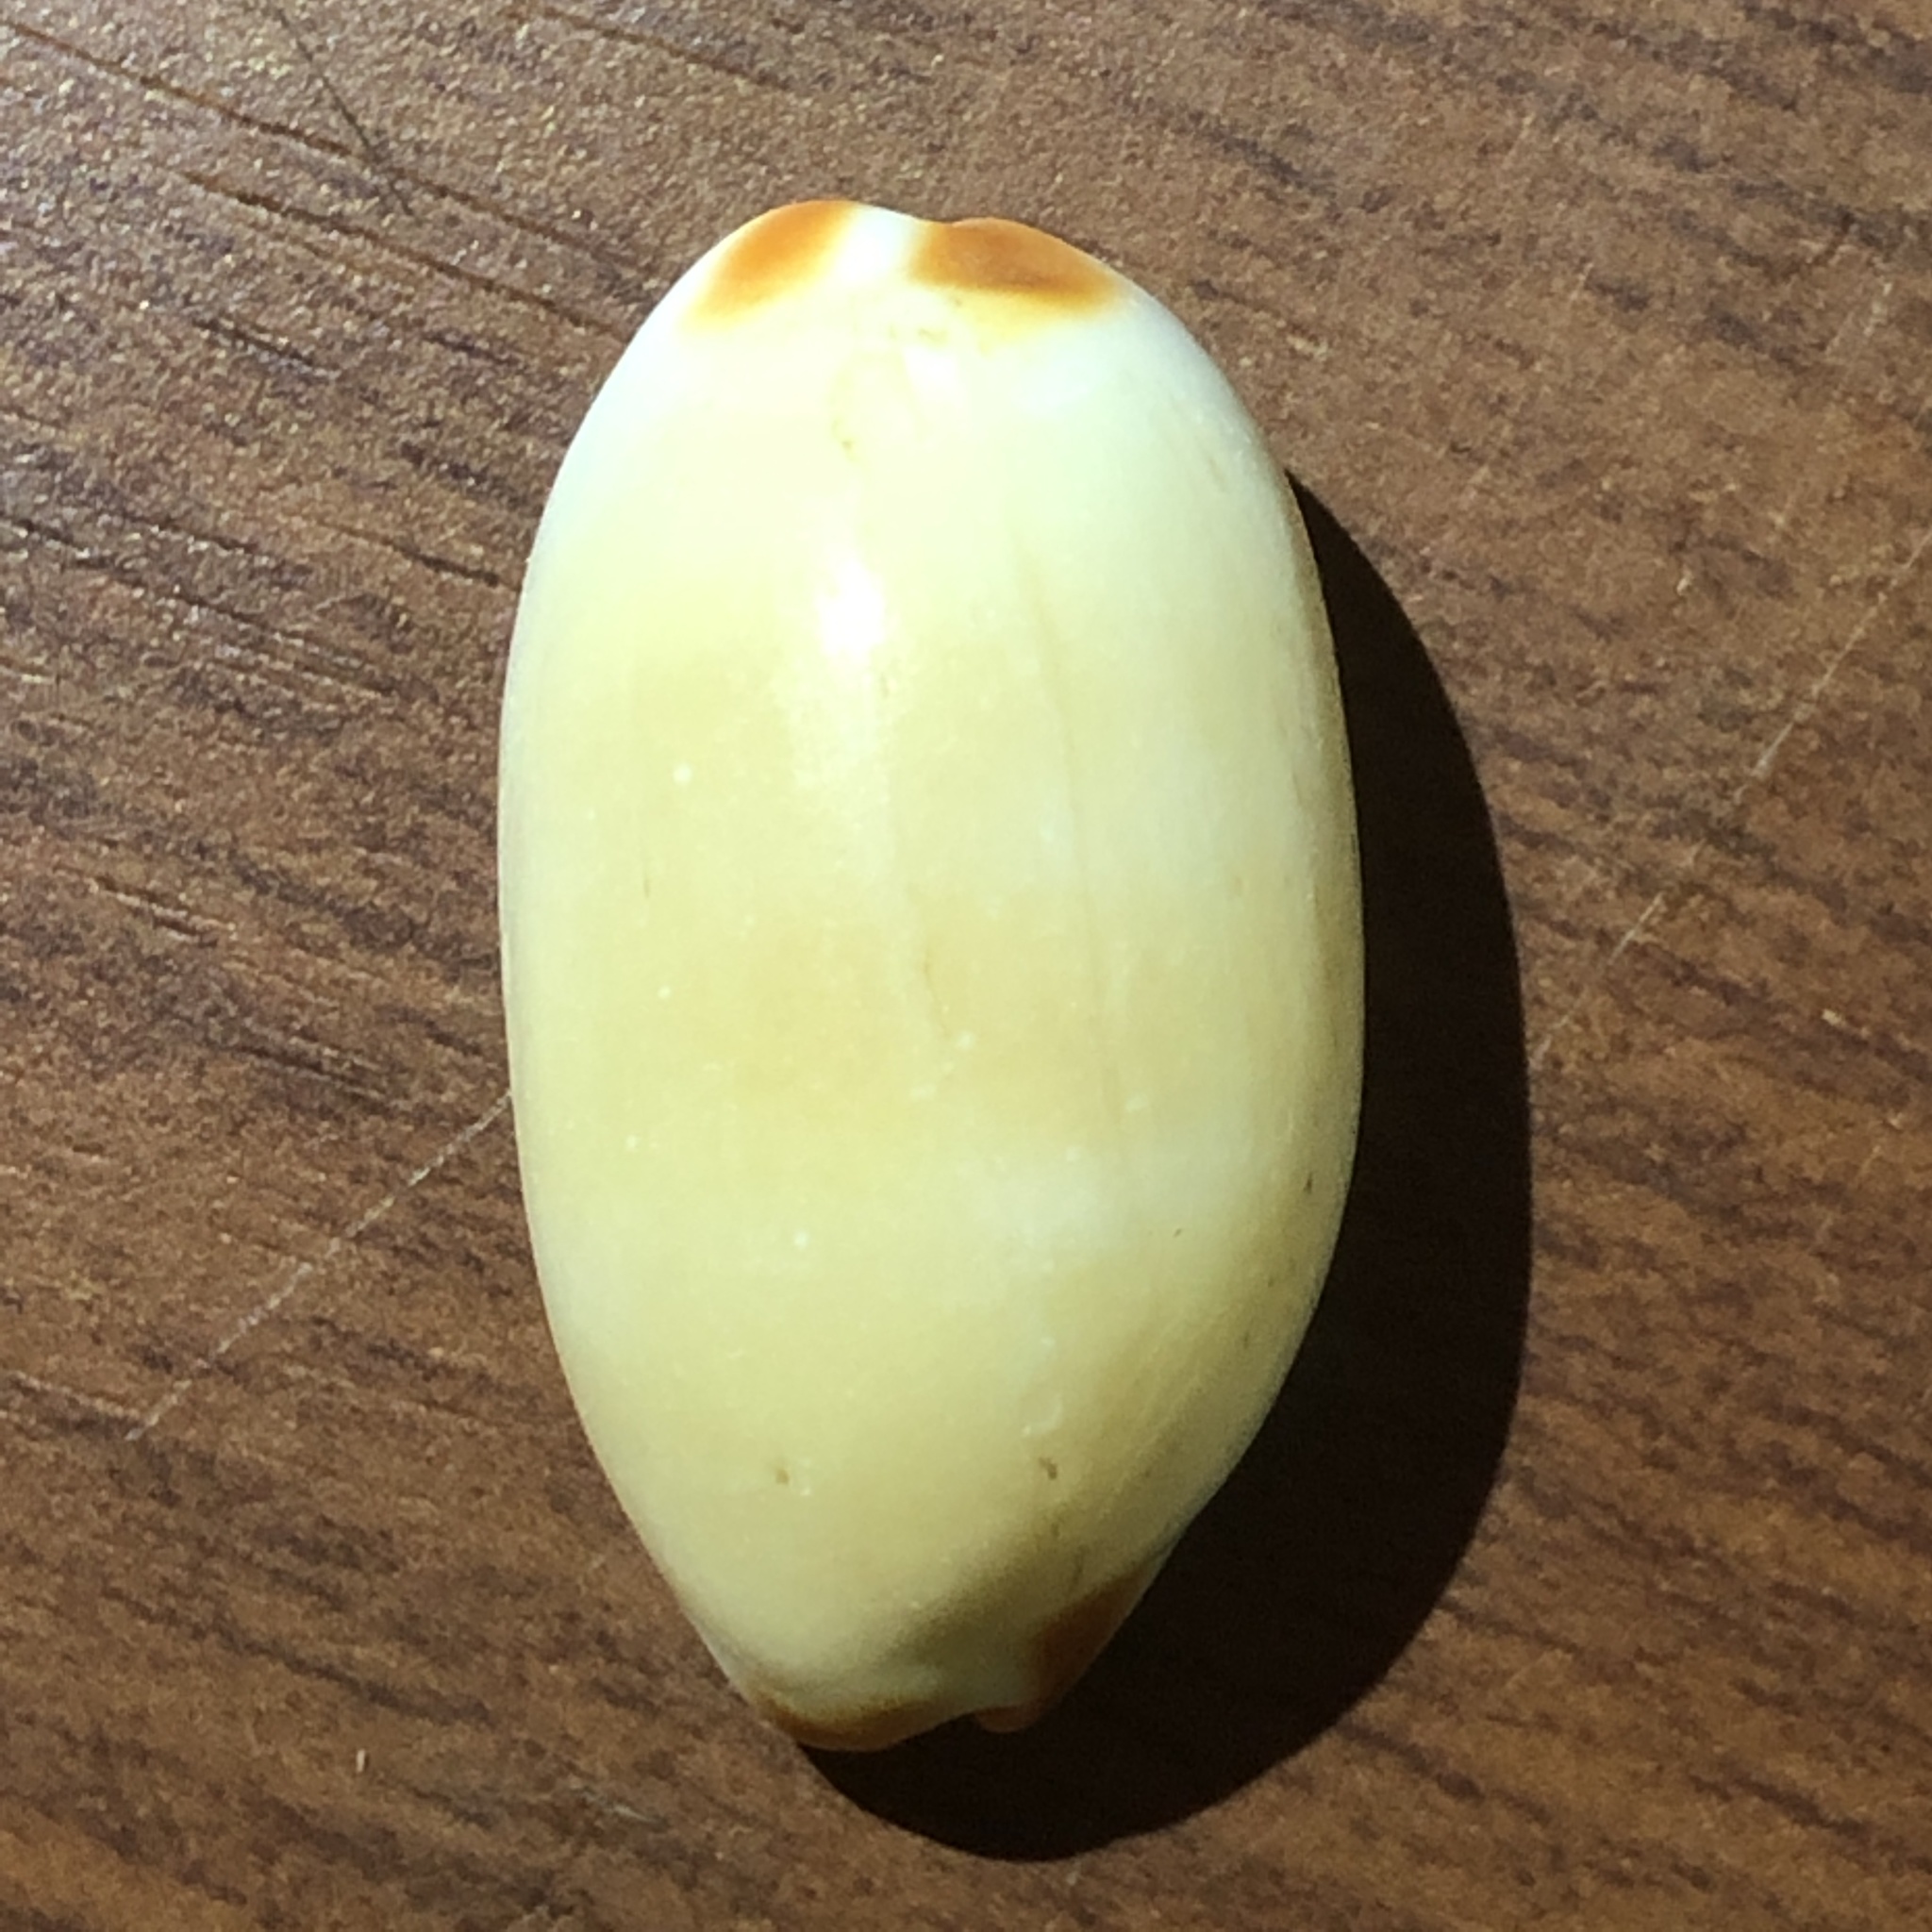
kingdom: Animalia
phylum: Mollusca
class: Gastropoda
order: Littorinimorpha
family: Cypraeidae
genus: Luria
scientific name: Luria isabella
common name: Isabell cowry
